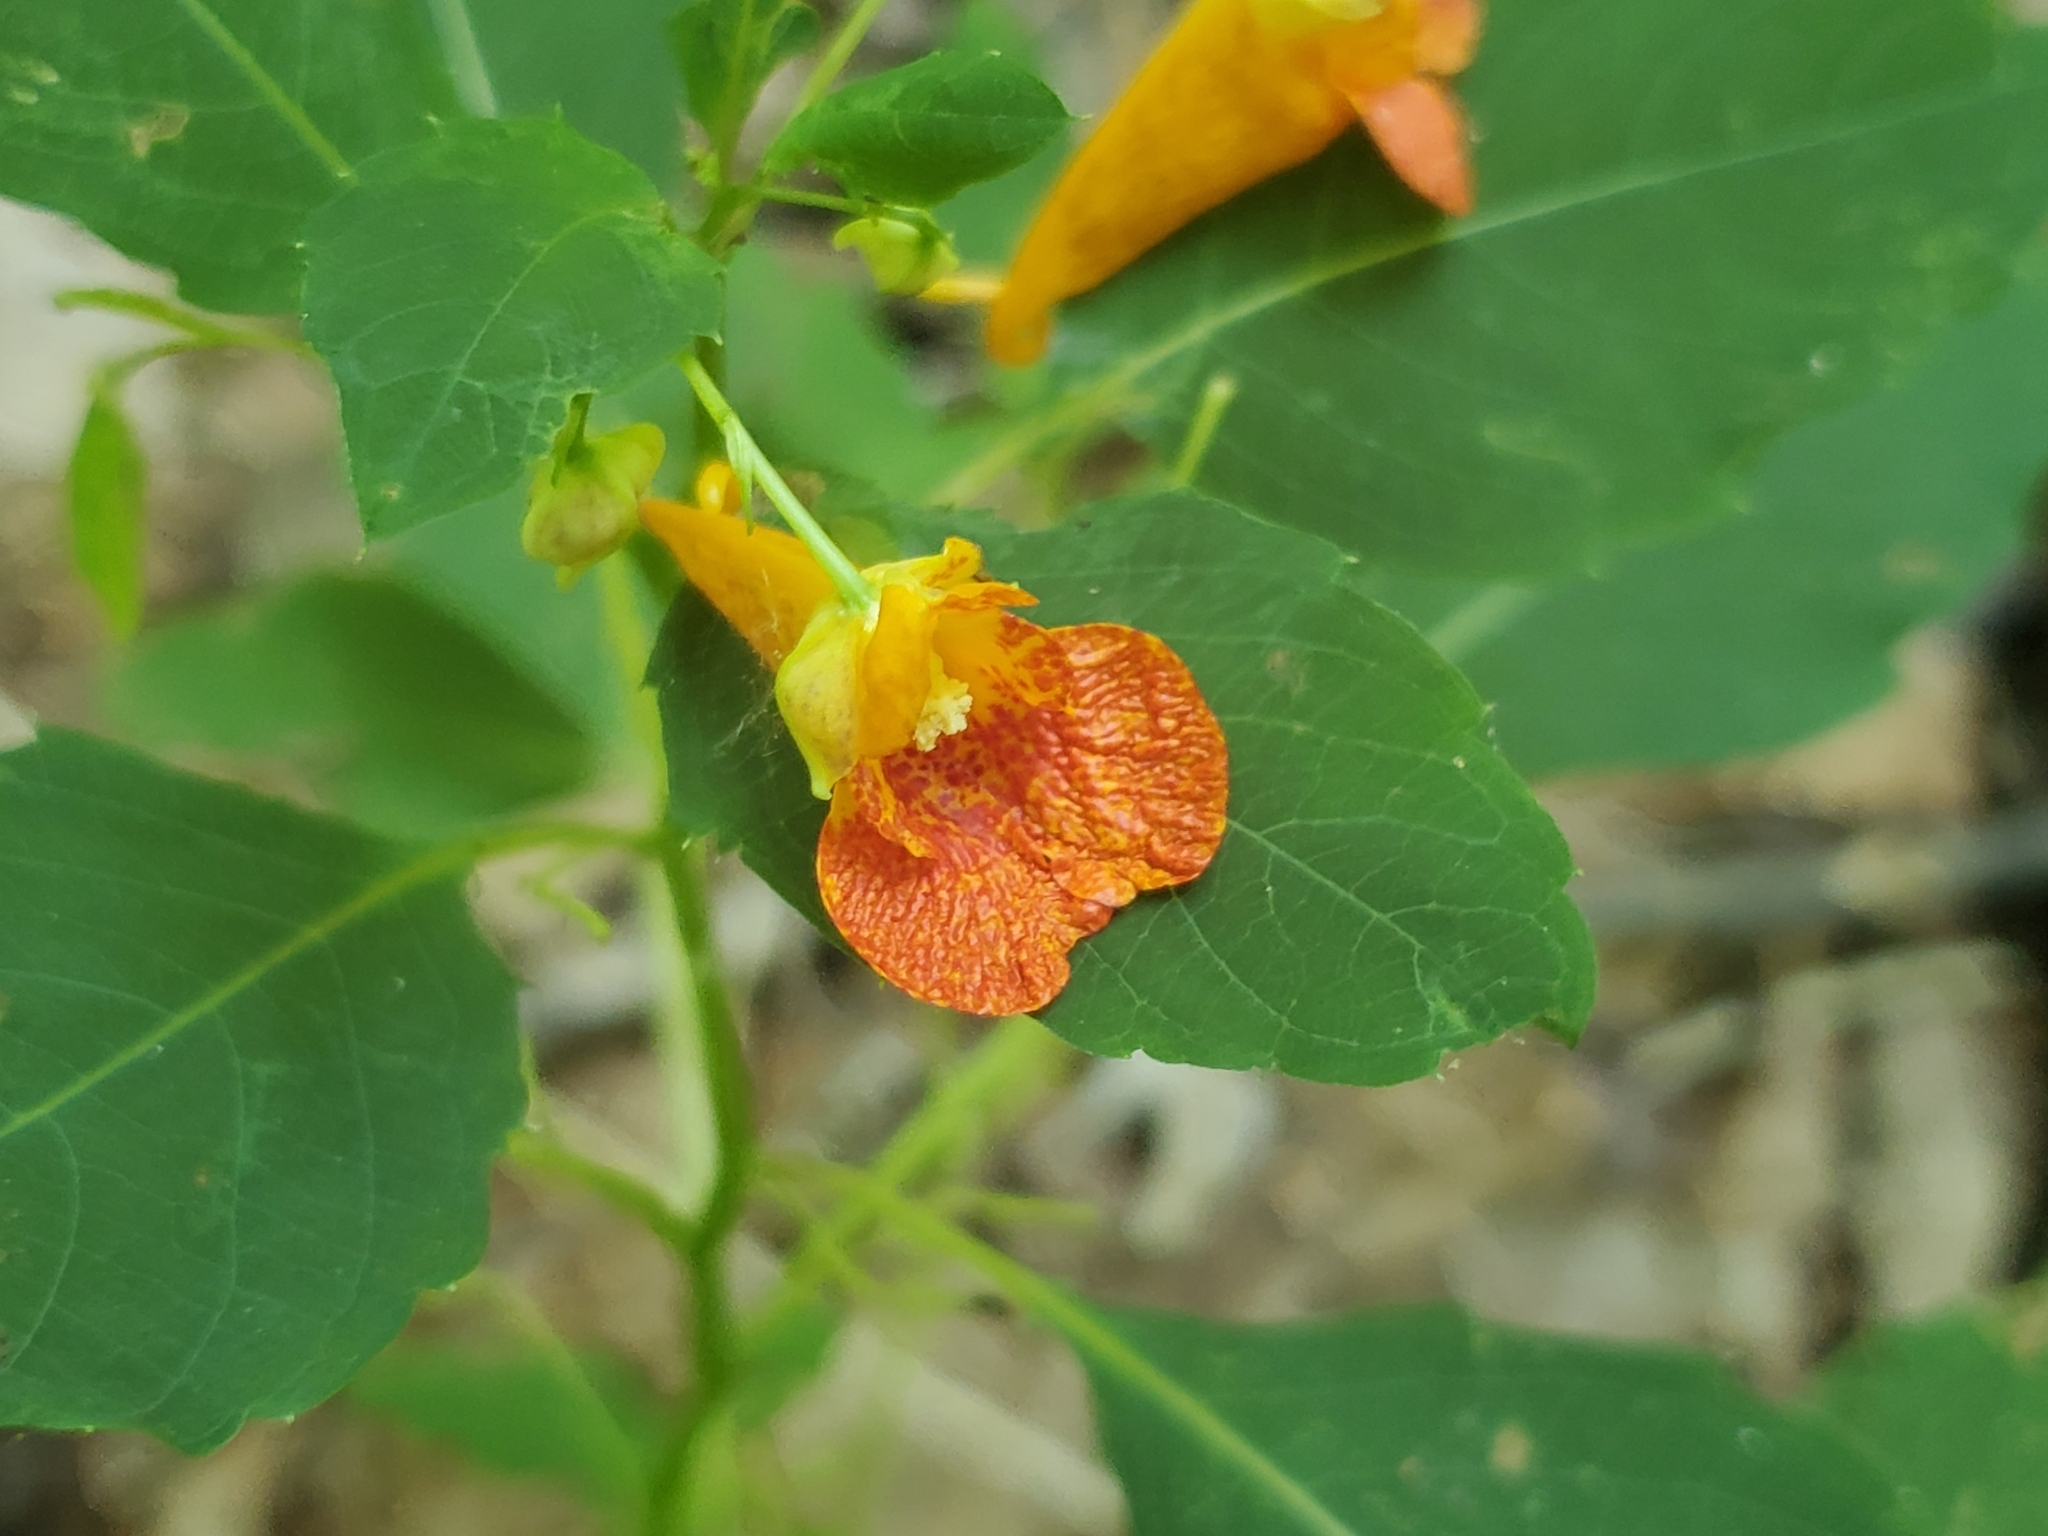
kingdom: Plantae
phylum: Tracheophyta
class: Magnoliopsida
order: Ericales
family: Balsaminaceae
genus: Impatiens
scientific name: Impatiens capensis
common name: Orange balsam
